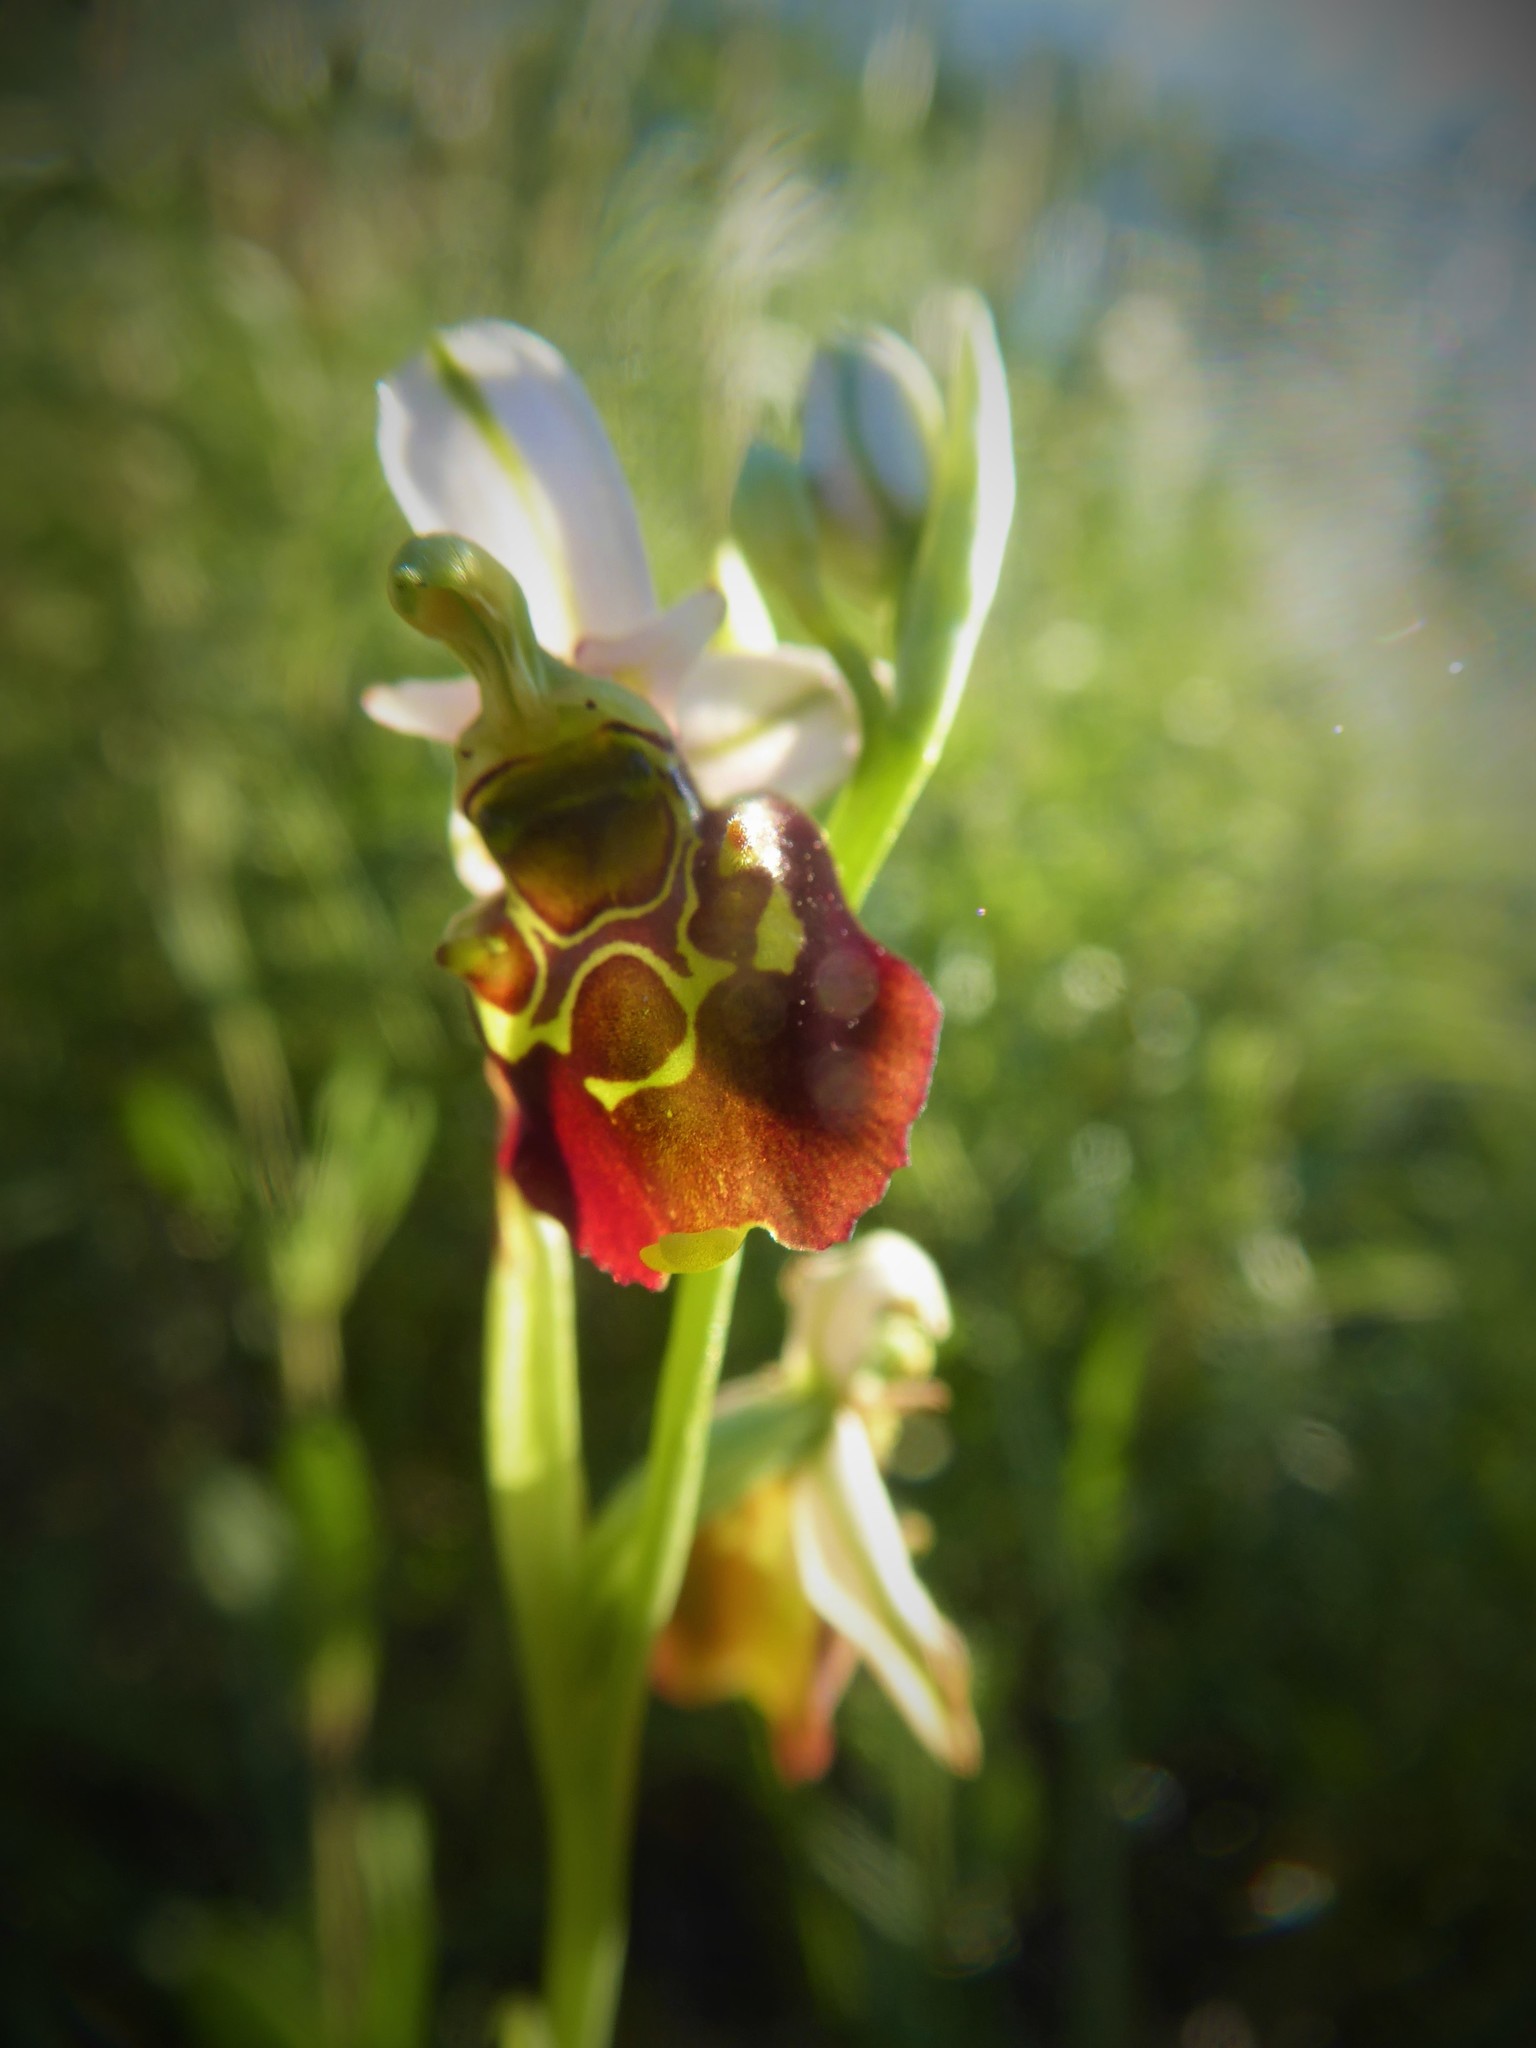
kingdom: Plantae
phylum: Tracheophyta
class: Liliopsida
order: Asparagales
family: Orchidaceae
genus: Ophrys
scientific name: Ophrys holosericea
